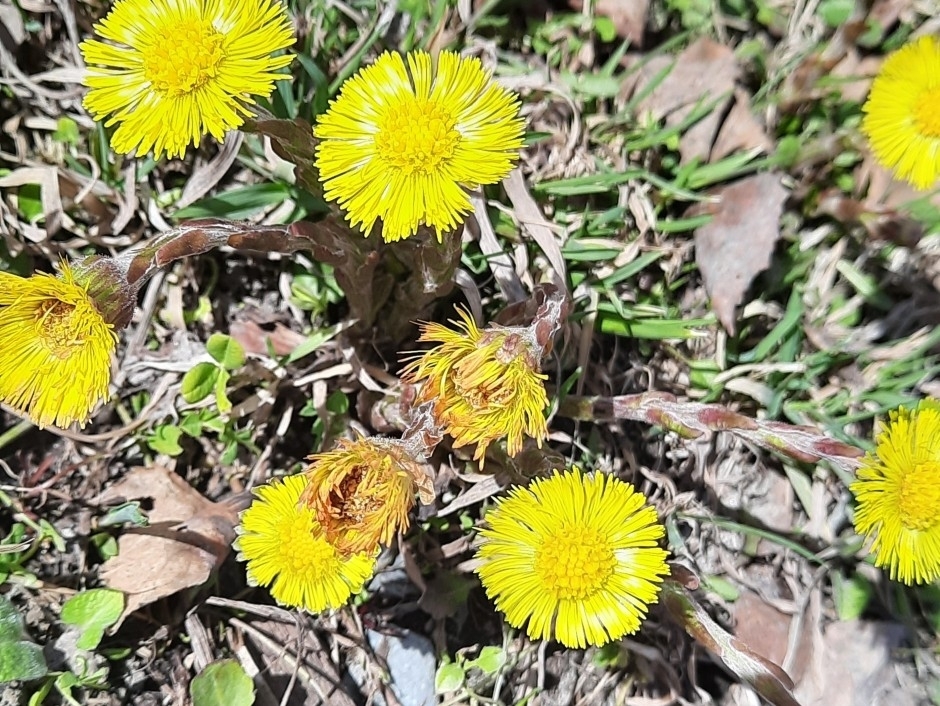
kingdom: Plantae
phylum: Tracheophyta
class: Magnoliopsida
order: Asterales
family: Asteraceae
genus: Tussilago
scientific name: Tussilago farfara
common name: Coltsfoot
